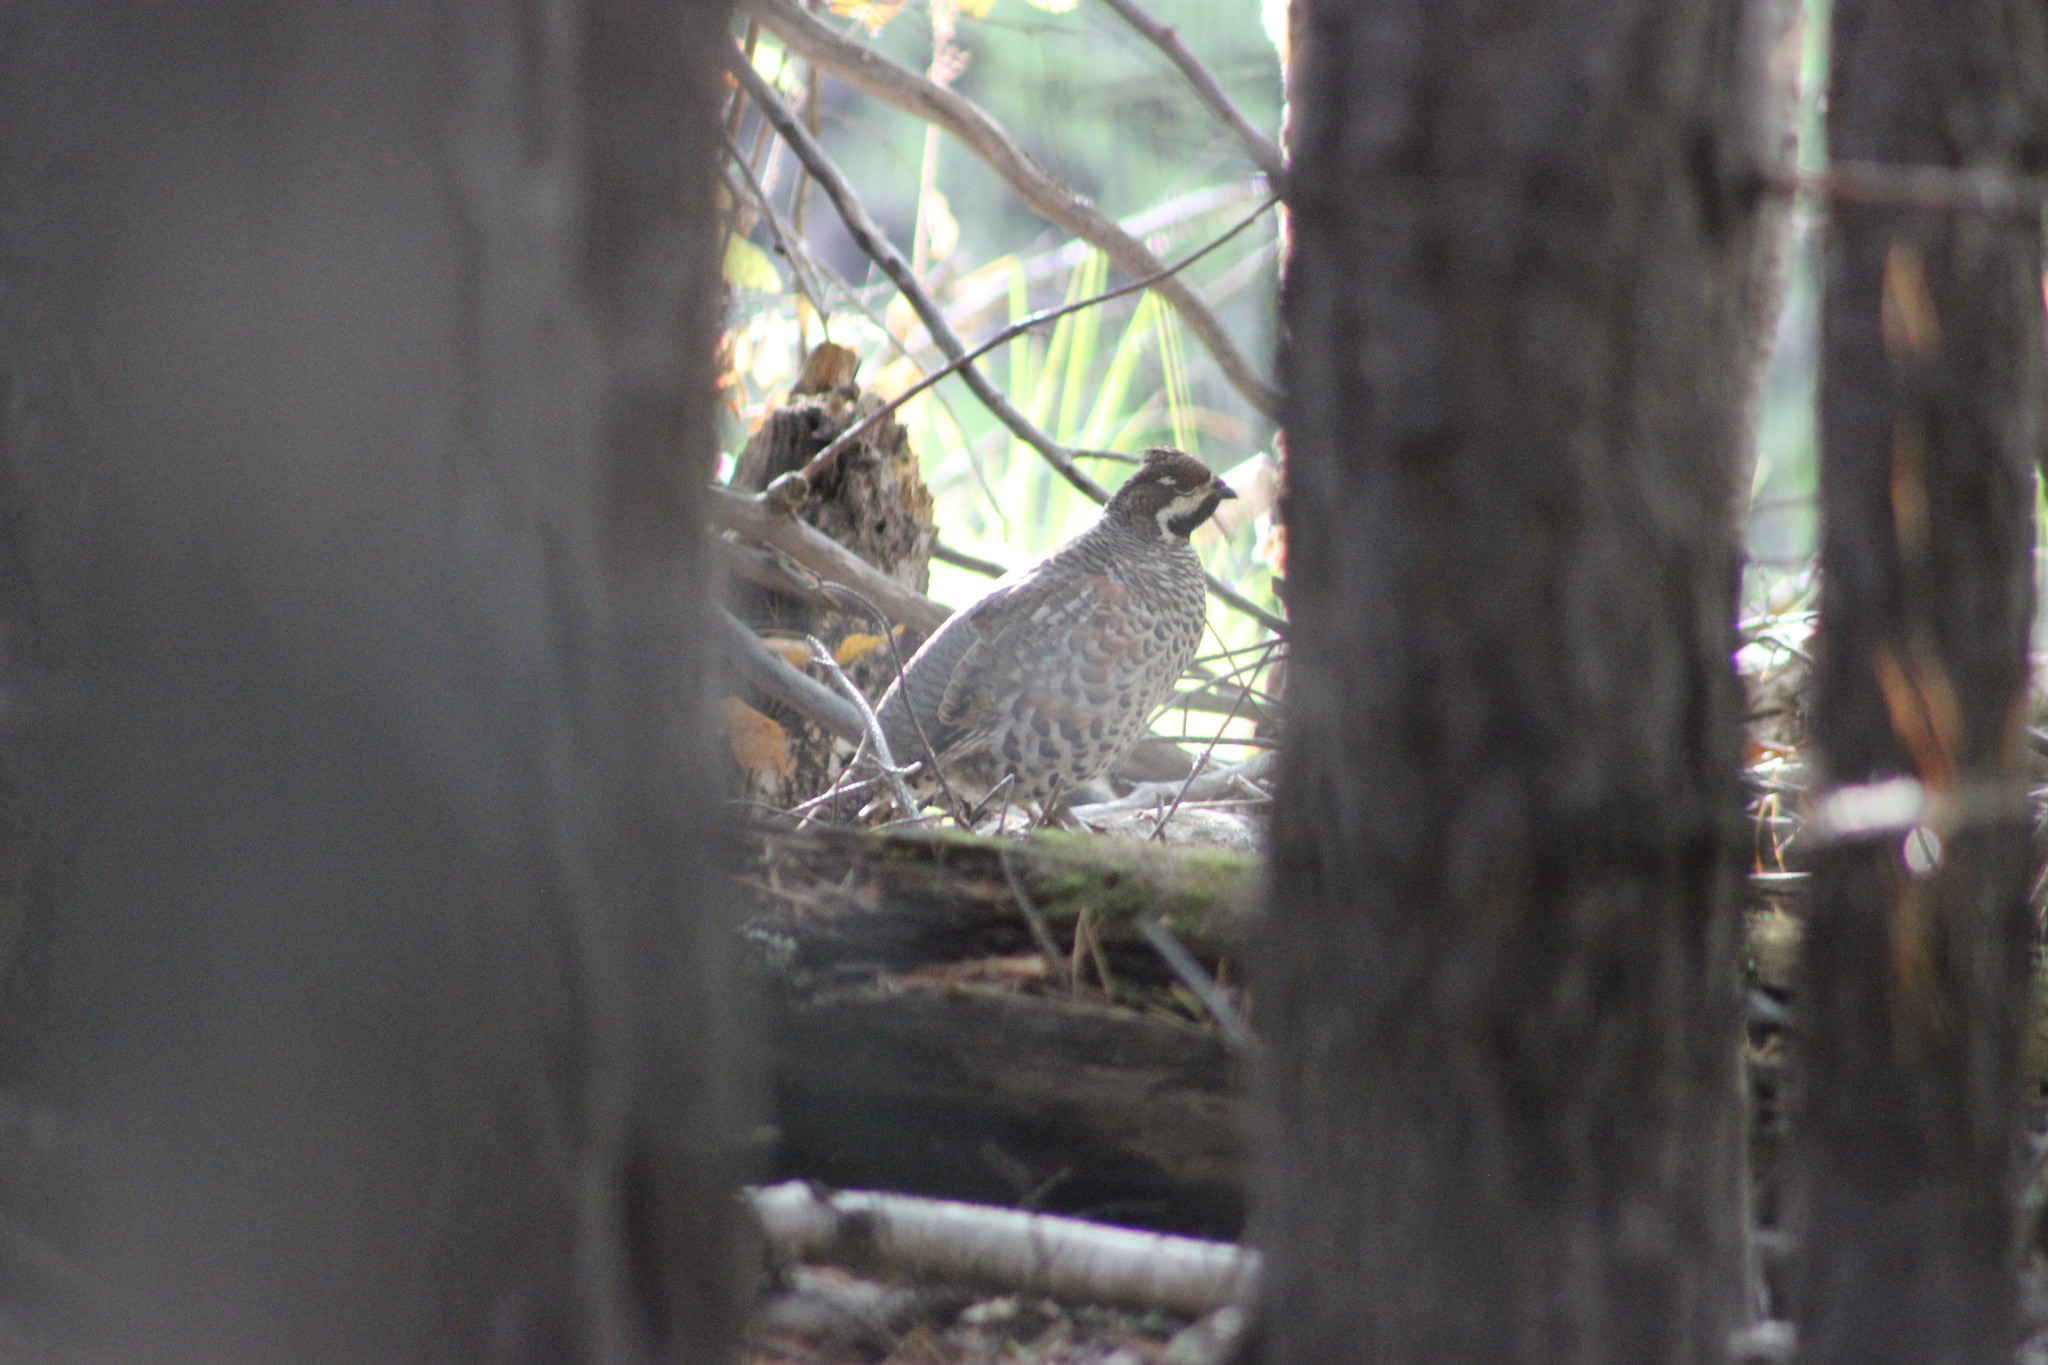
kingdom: Animalia
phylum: Chordata
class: Aves
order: Galliformes
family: Phasianidae
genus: Tetrastes
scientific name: Tetrastes bonasia
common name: Hazel grouse
